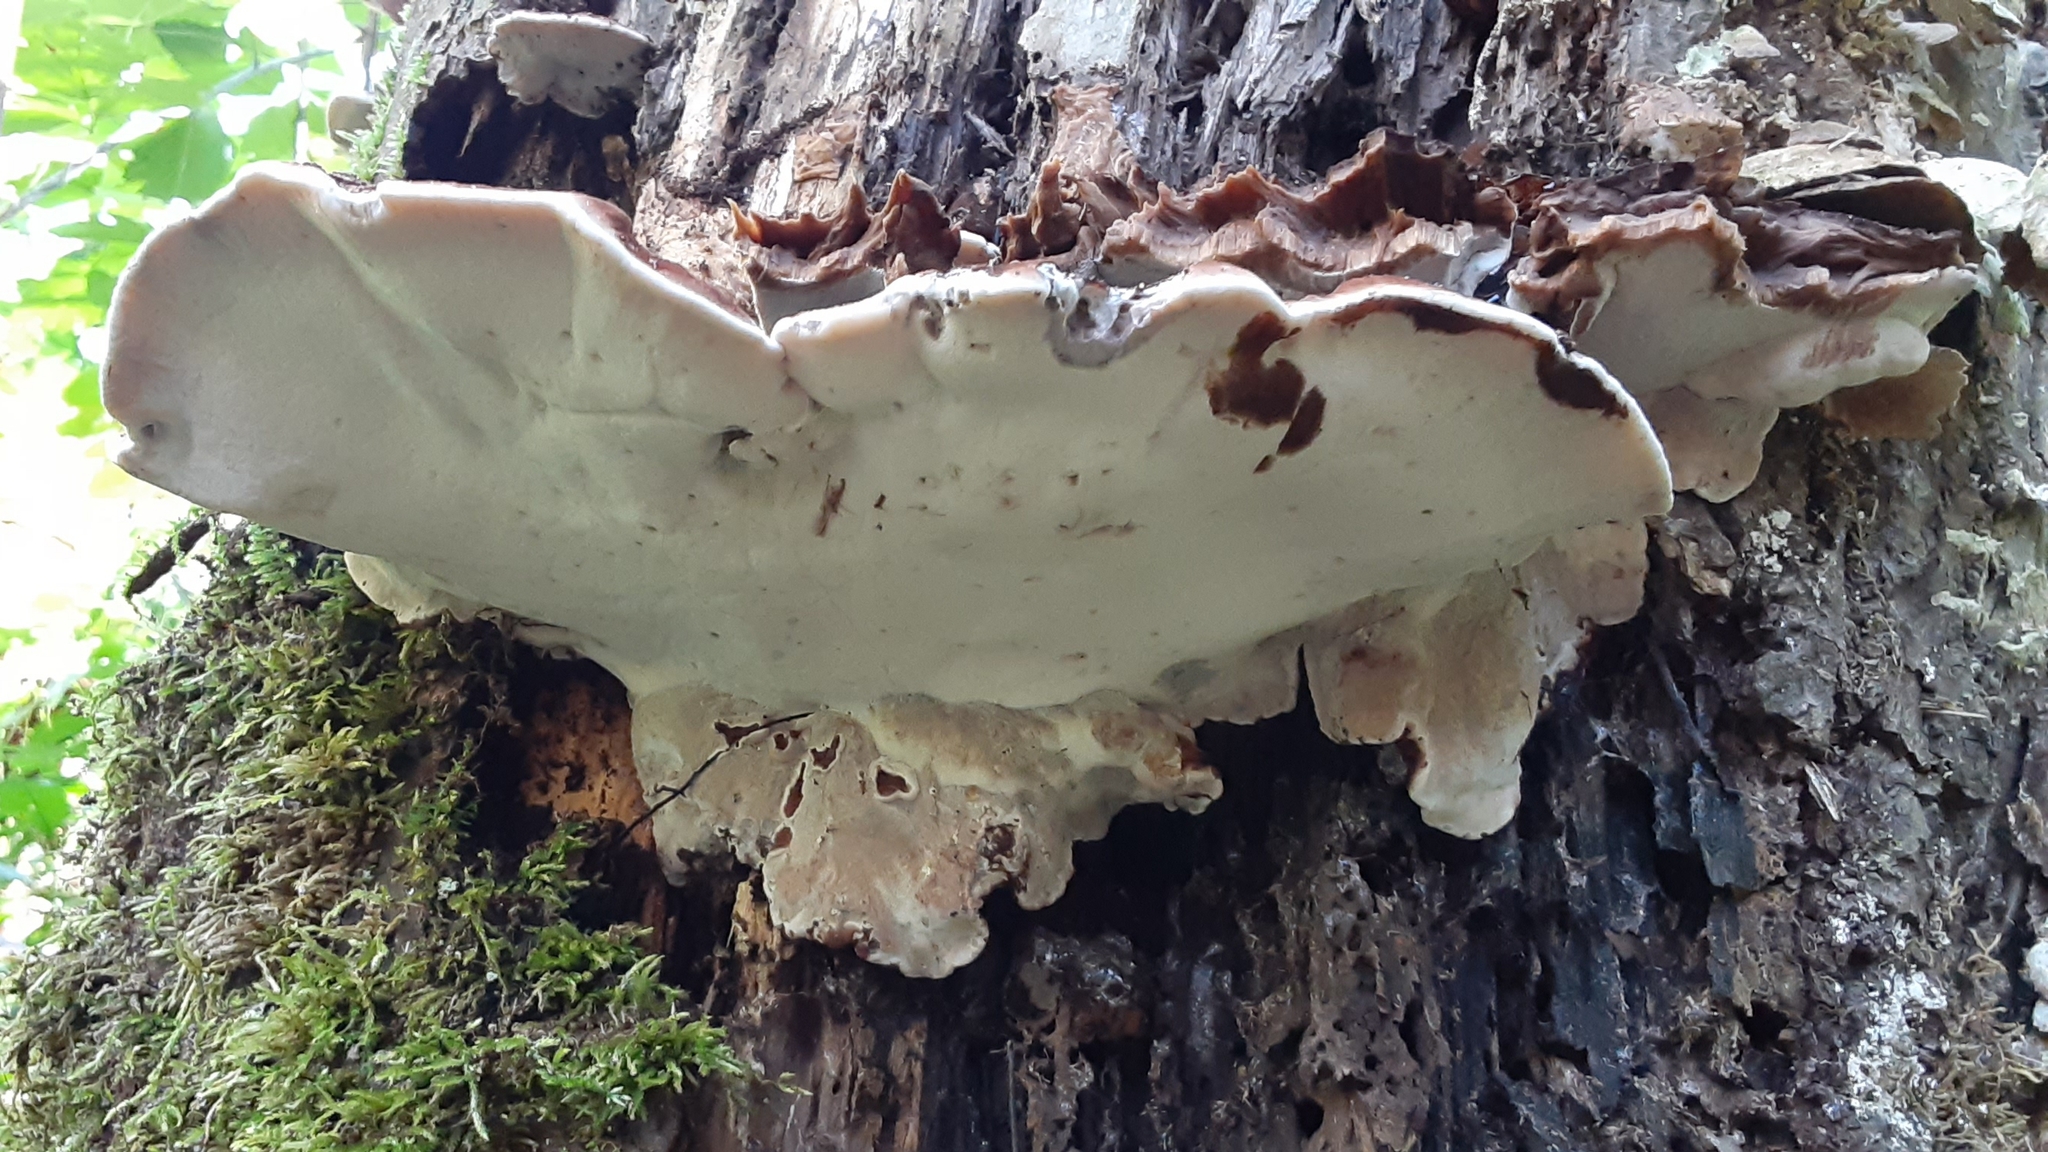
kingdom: Fungi
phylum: Basidiomycota
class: Agaricomycetes
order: Polyporales
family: Ischnodermataceae
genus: Ischnoderma
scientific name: Ischnoderma resinosum
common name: Resinous polypore
